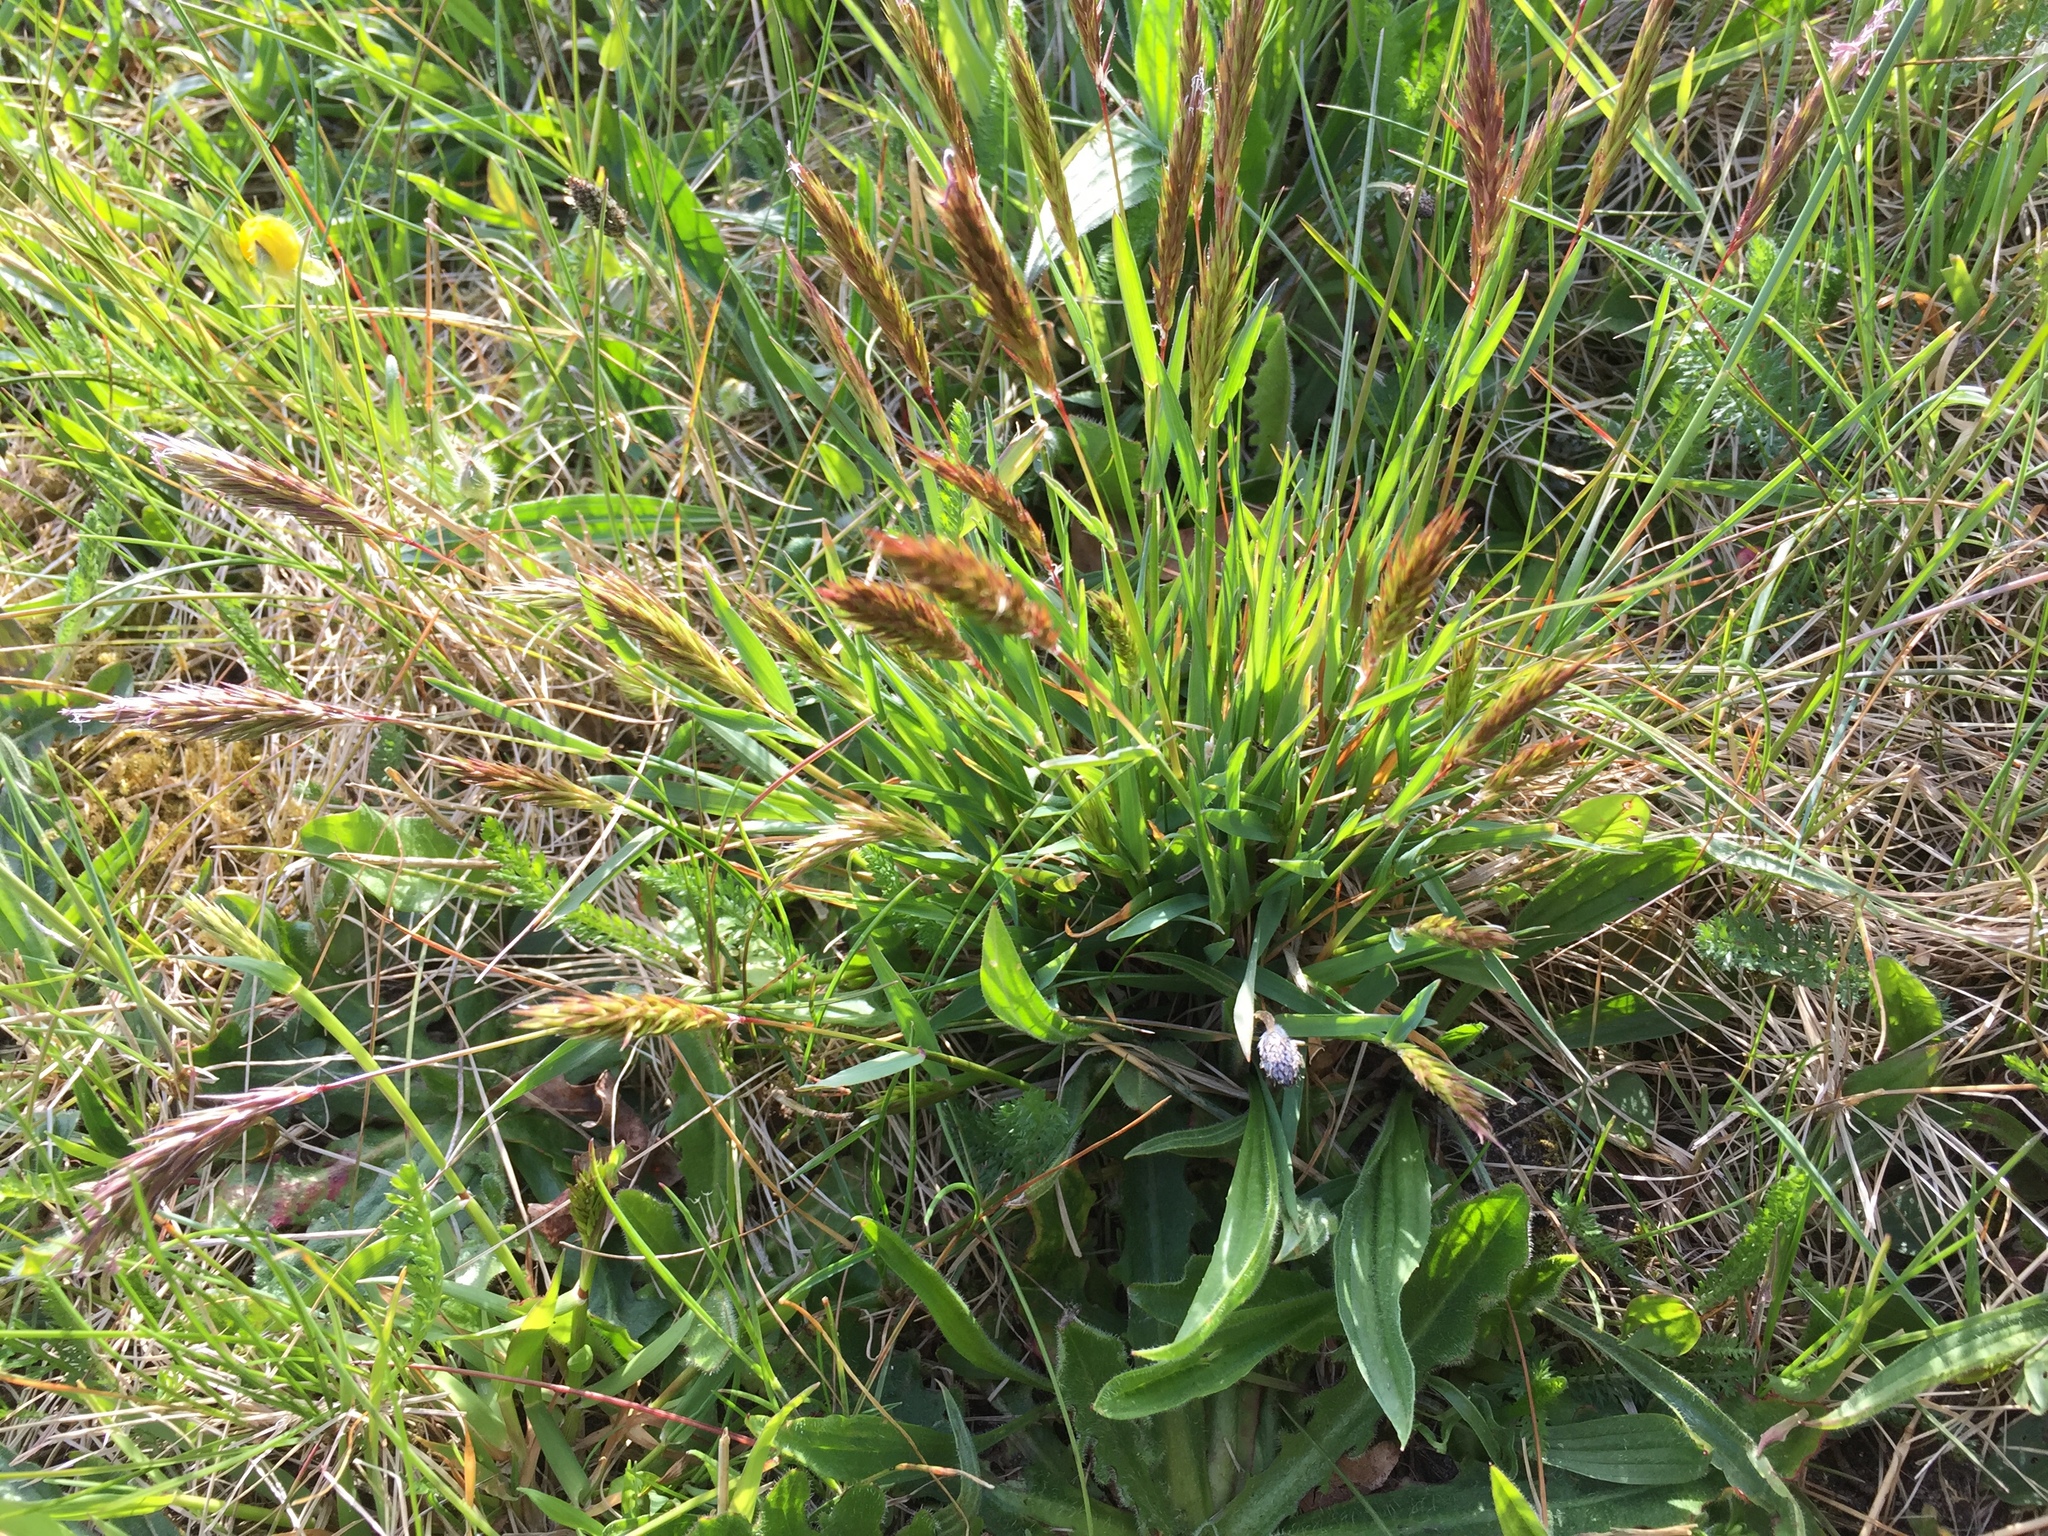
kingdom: Plantae
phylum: Tracheophyta
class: Liliopsida
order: Poales
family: Poaceae
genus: Anthoxanthum
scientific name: Anthoxanthum odoratum
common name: Sweet vernalgrass
